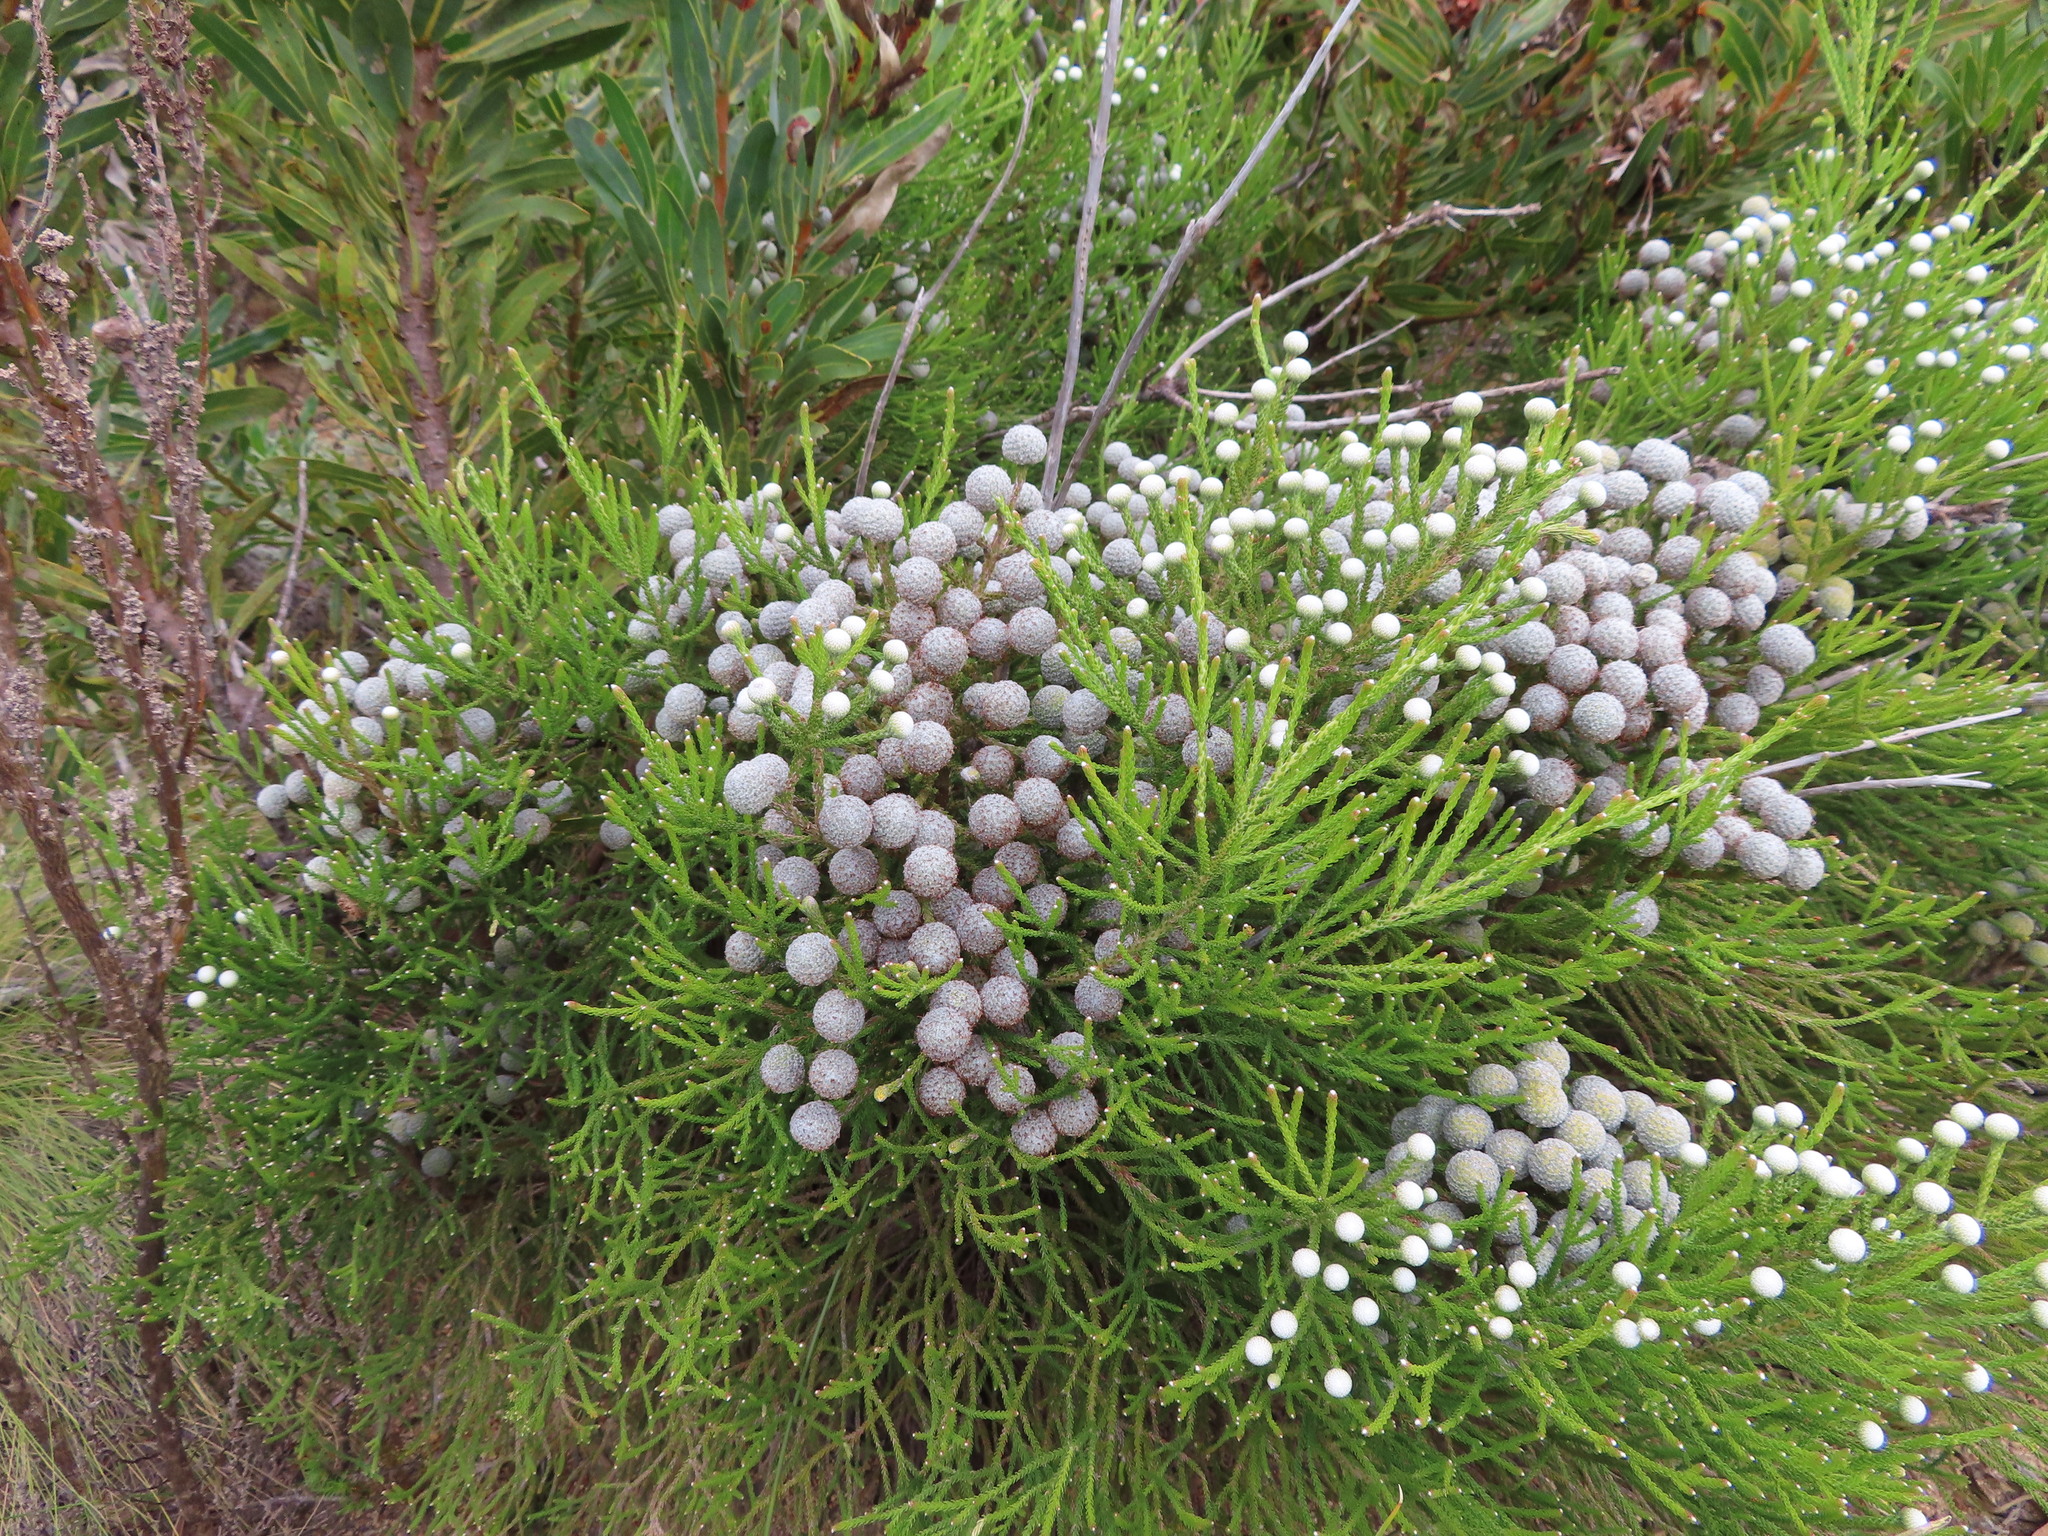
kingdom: Plantae
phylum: Tracheophyta
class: Magnoliopsida
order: Bruniales
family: Bruniaceae
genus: Brunia
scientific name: Brunia noduliflora
